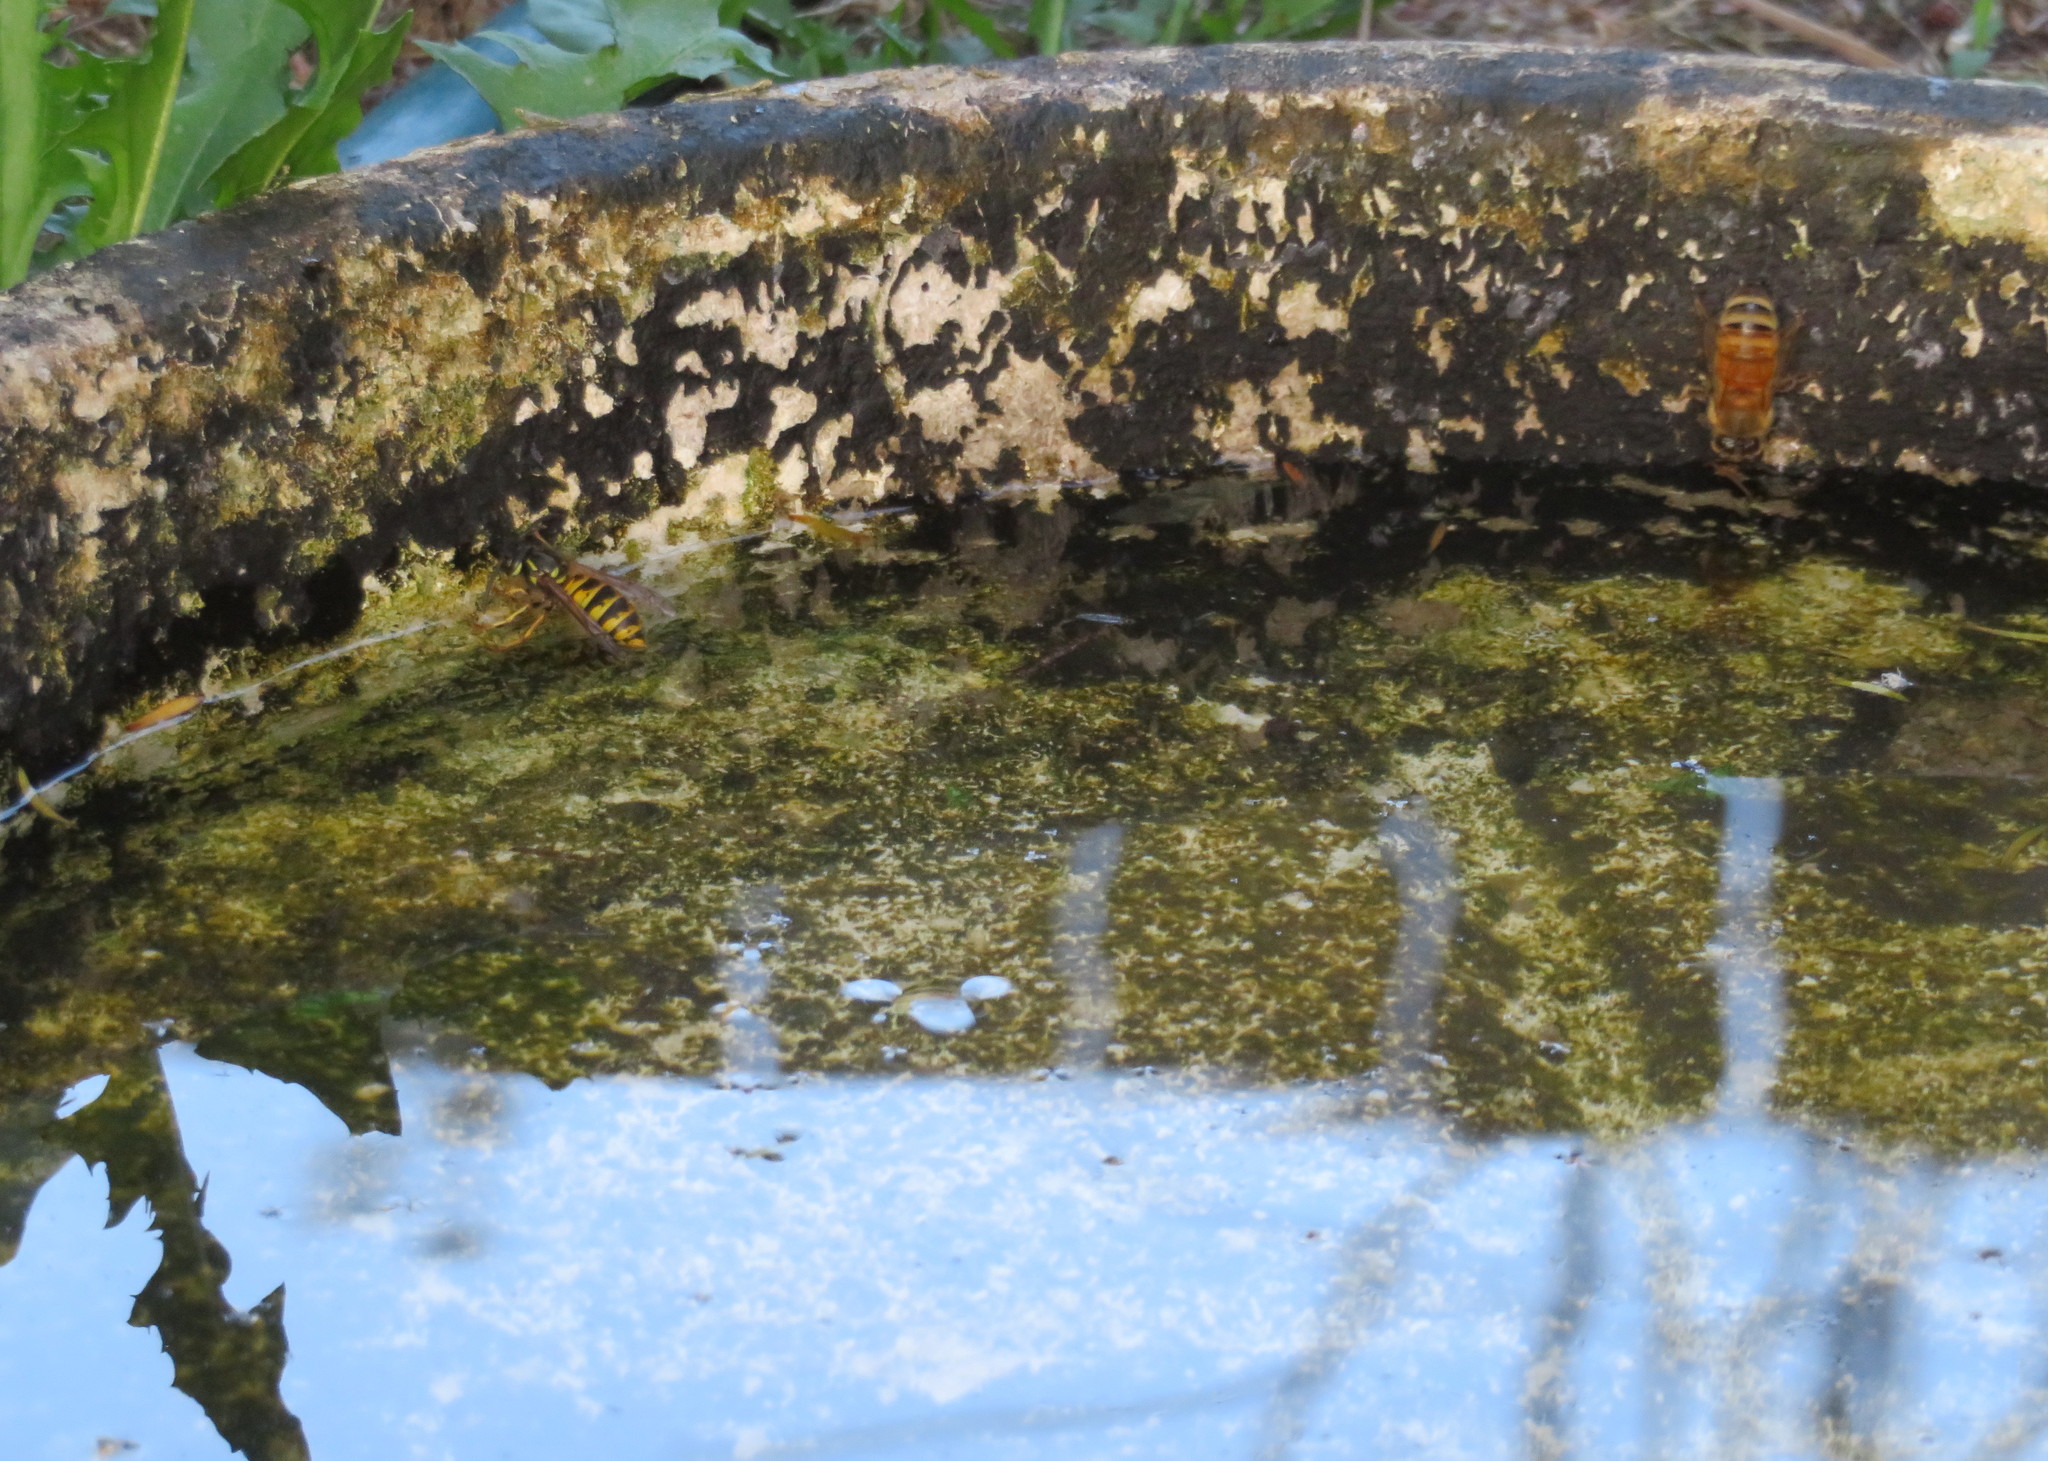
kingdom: Animalia
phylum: Arthropoda
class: Insecta
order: Hymenoptera
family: Apidae
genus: Apis
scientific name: Apis mellifera
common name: Honey bee
